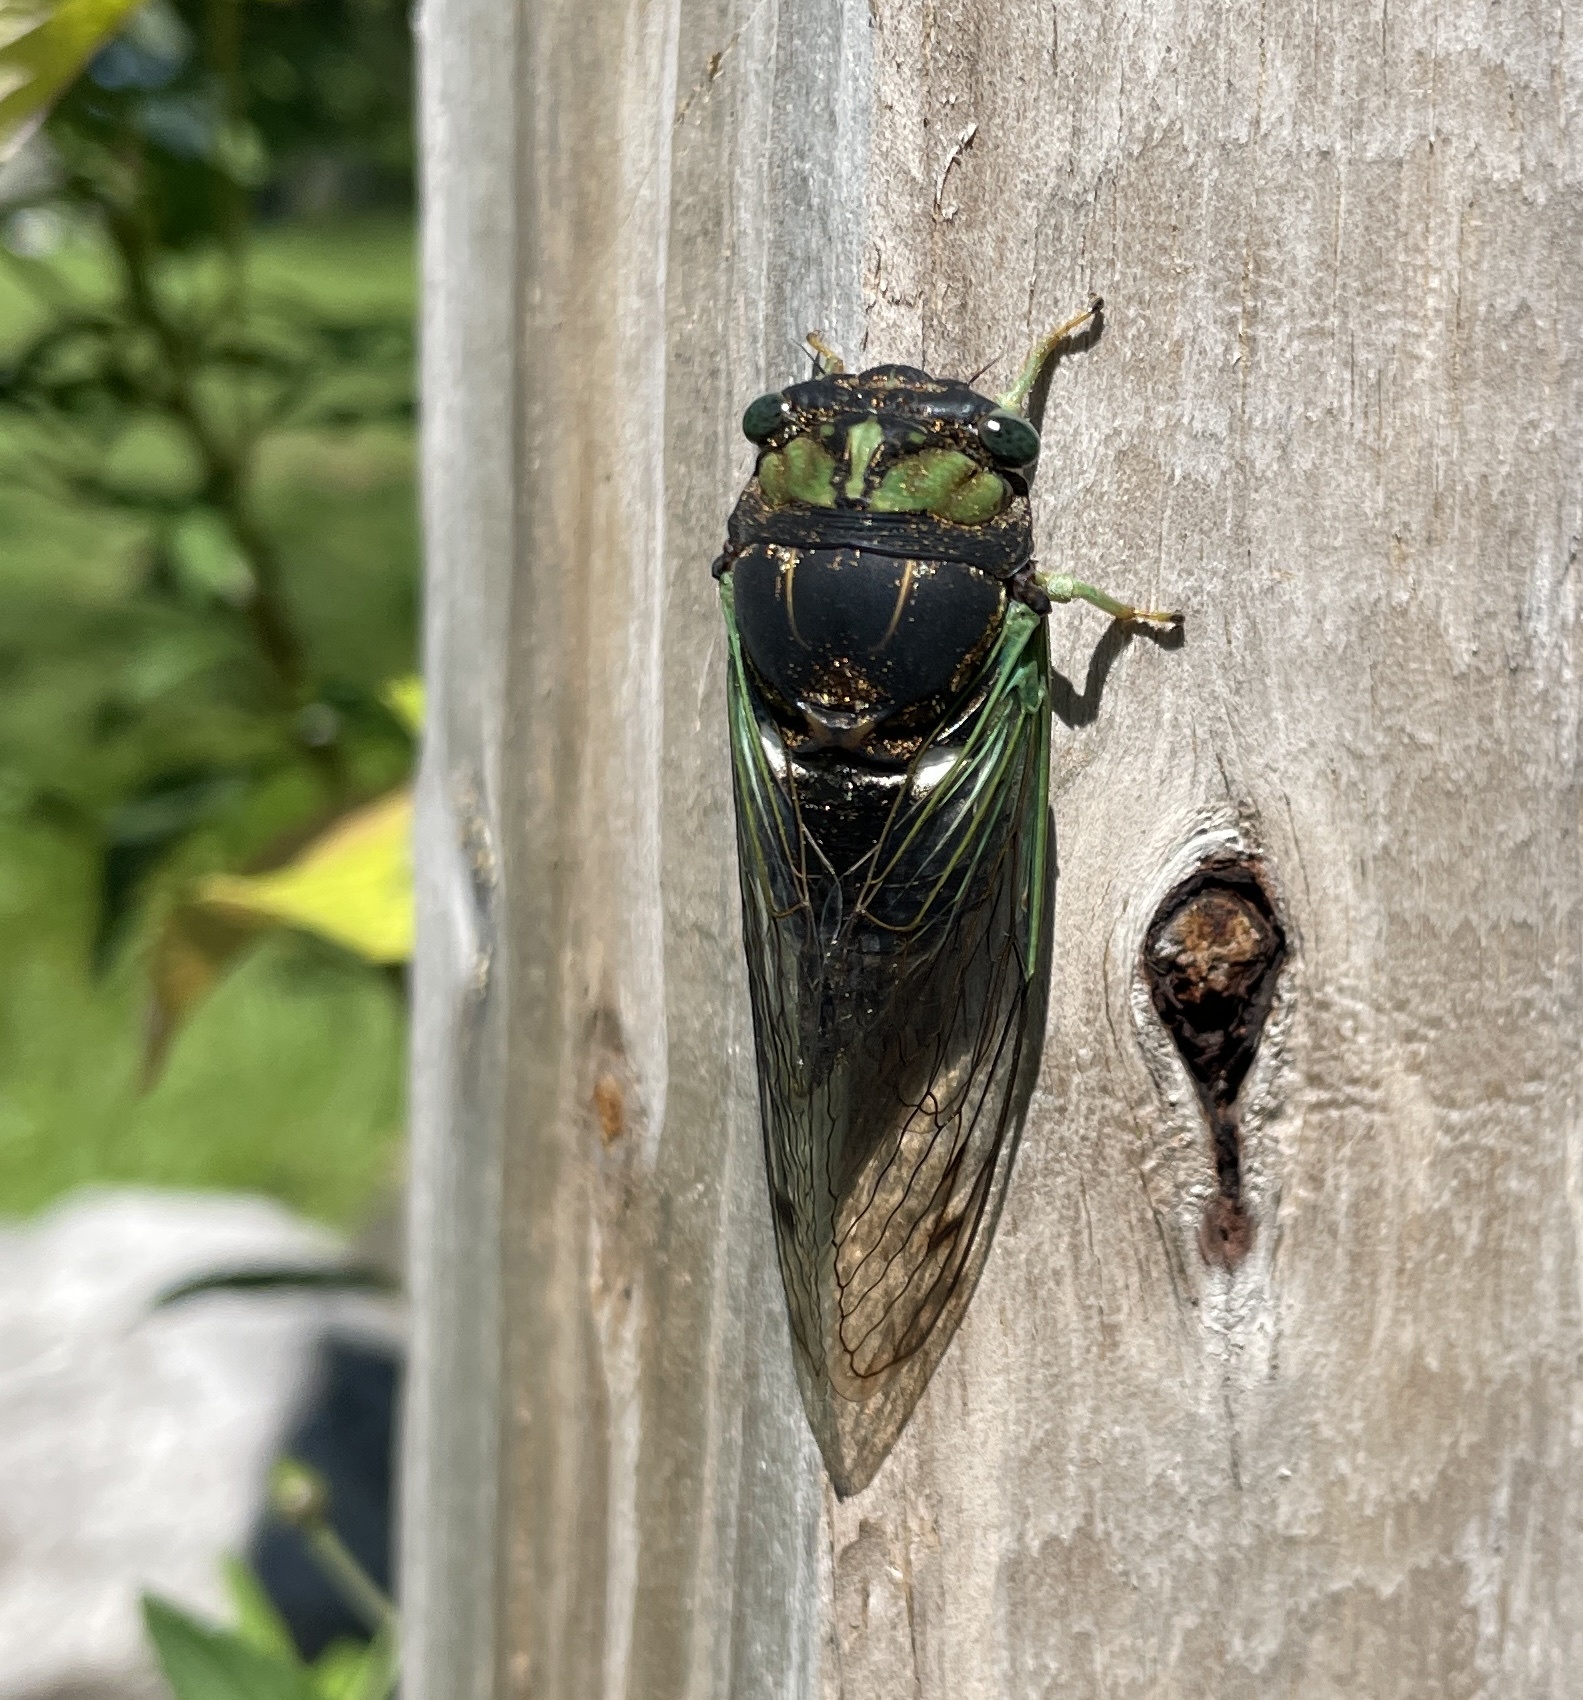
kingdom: Animalia
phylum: Arthropoda
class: Insecta
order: Hemiptera
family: Cicadidae
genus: Neotibicen
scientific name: Neotibicen tibicen
